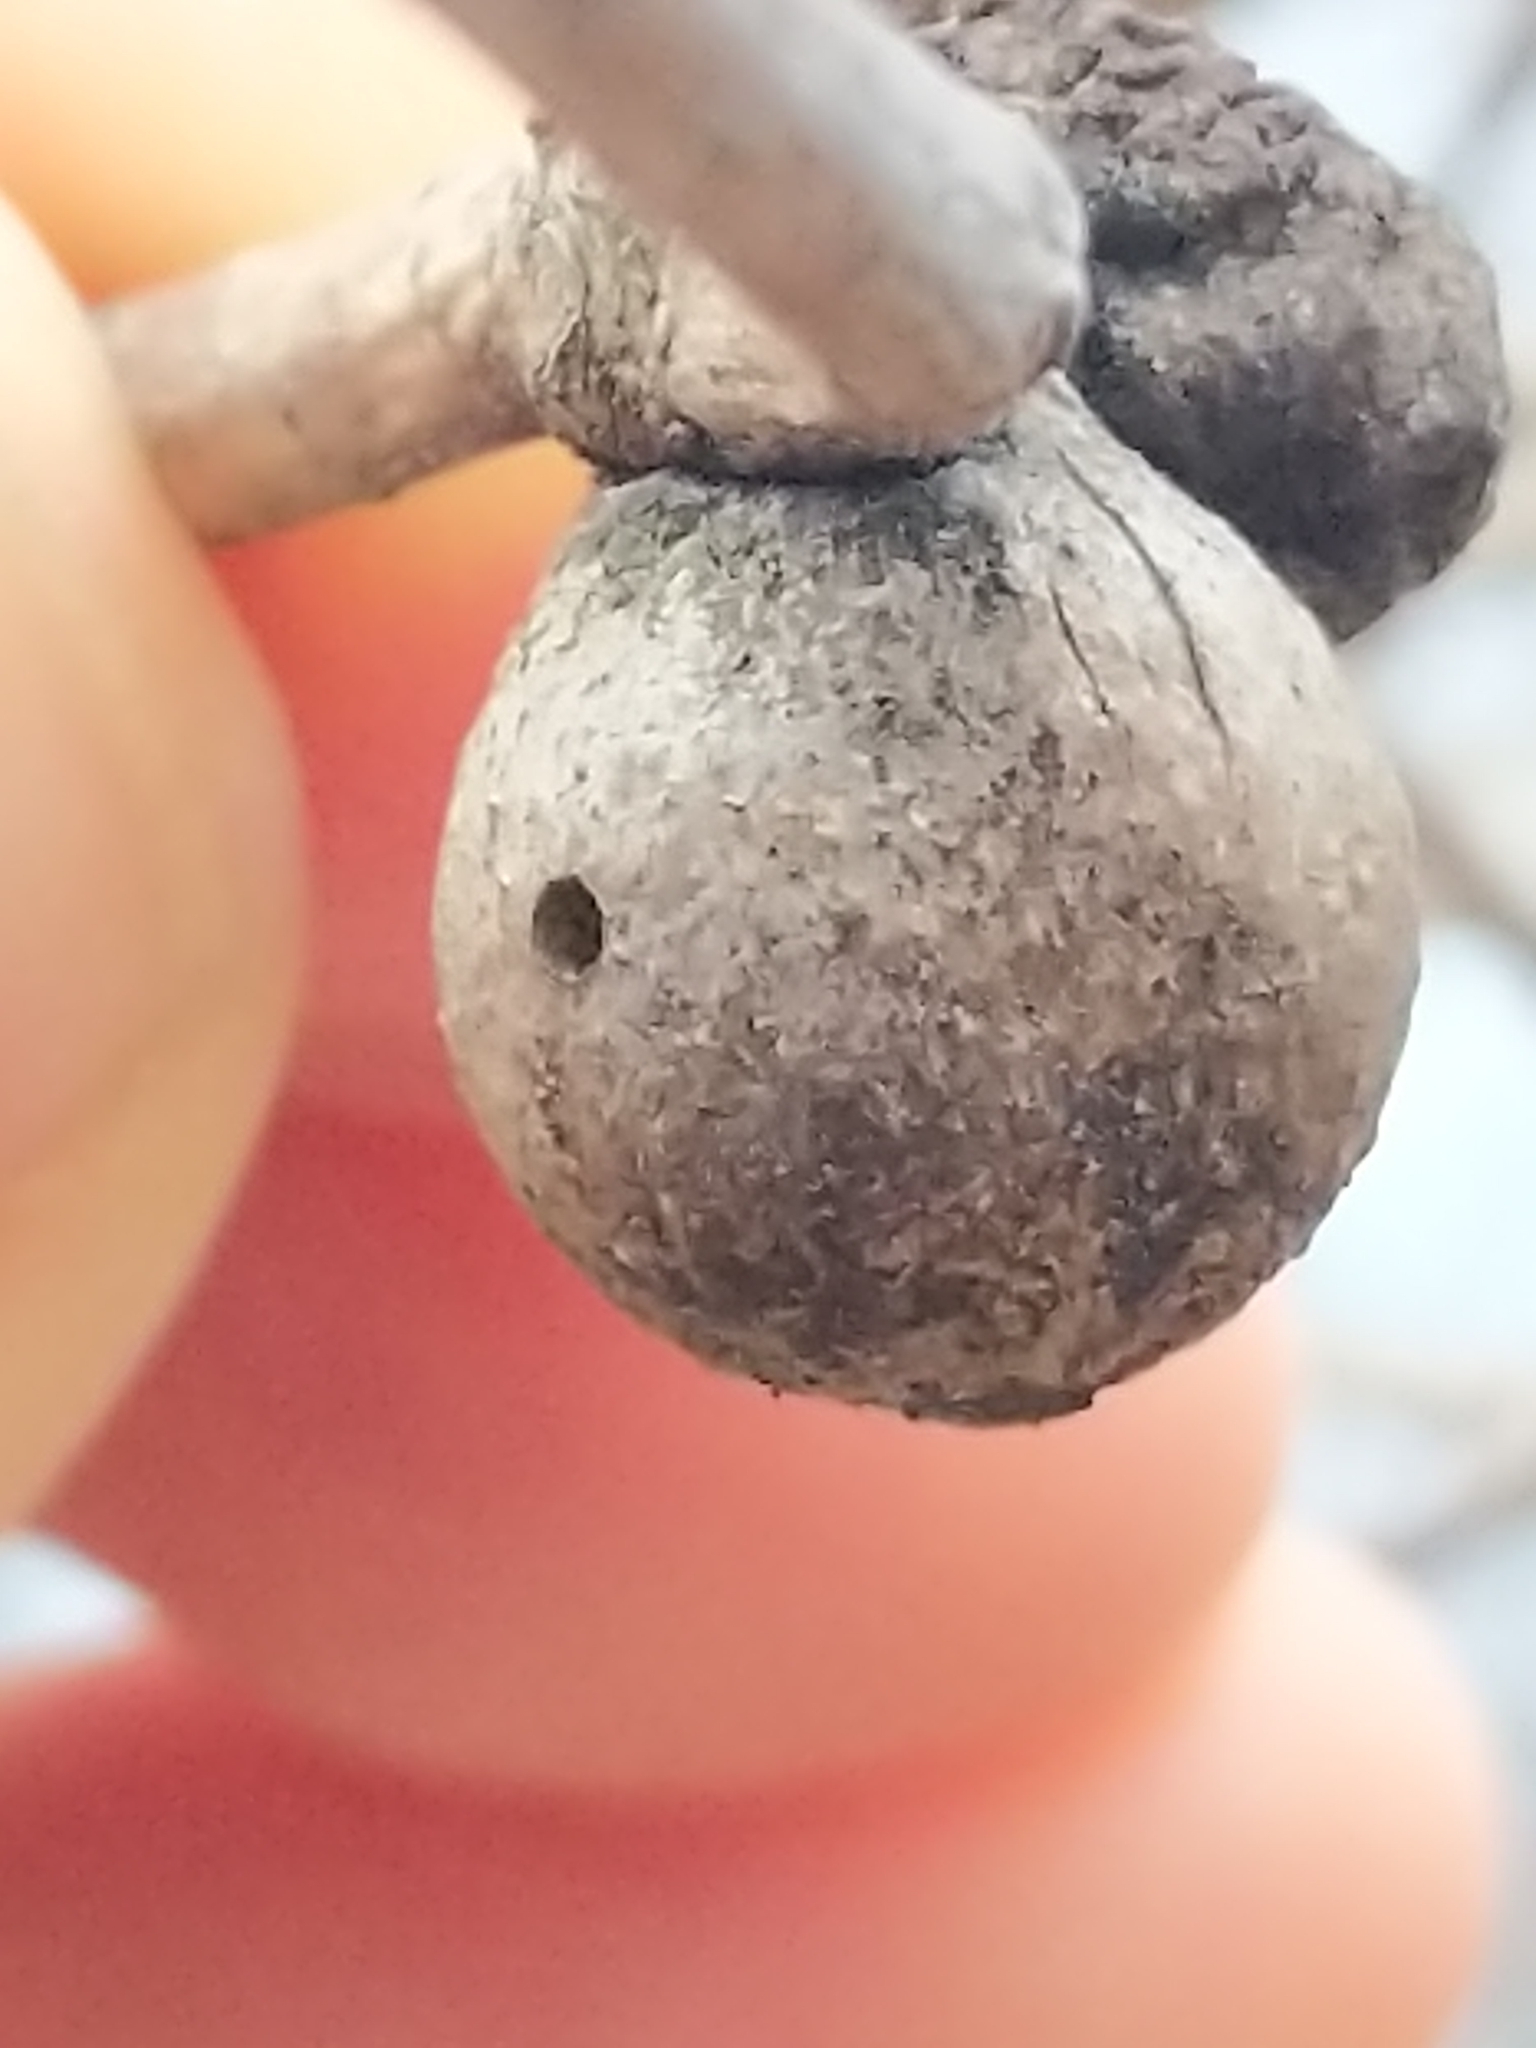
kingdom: Animalia
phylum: Arthropoda
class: Insecta
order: Hymenoptera
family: Cynipidae
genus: Disholcaspis
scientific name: Disholcaspis quercusglobulus
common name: Round bullet gall wasp
